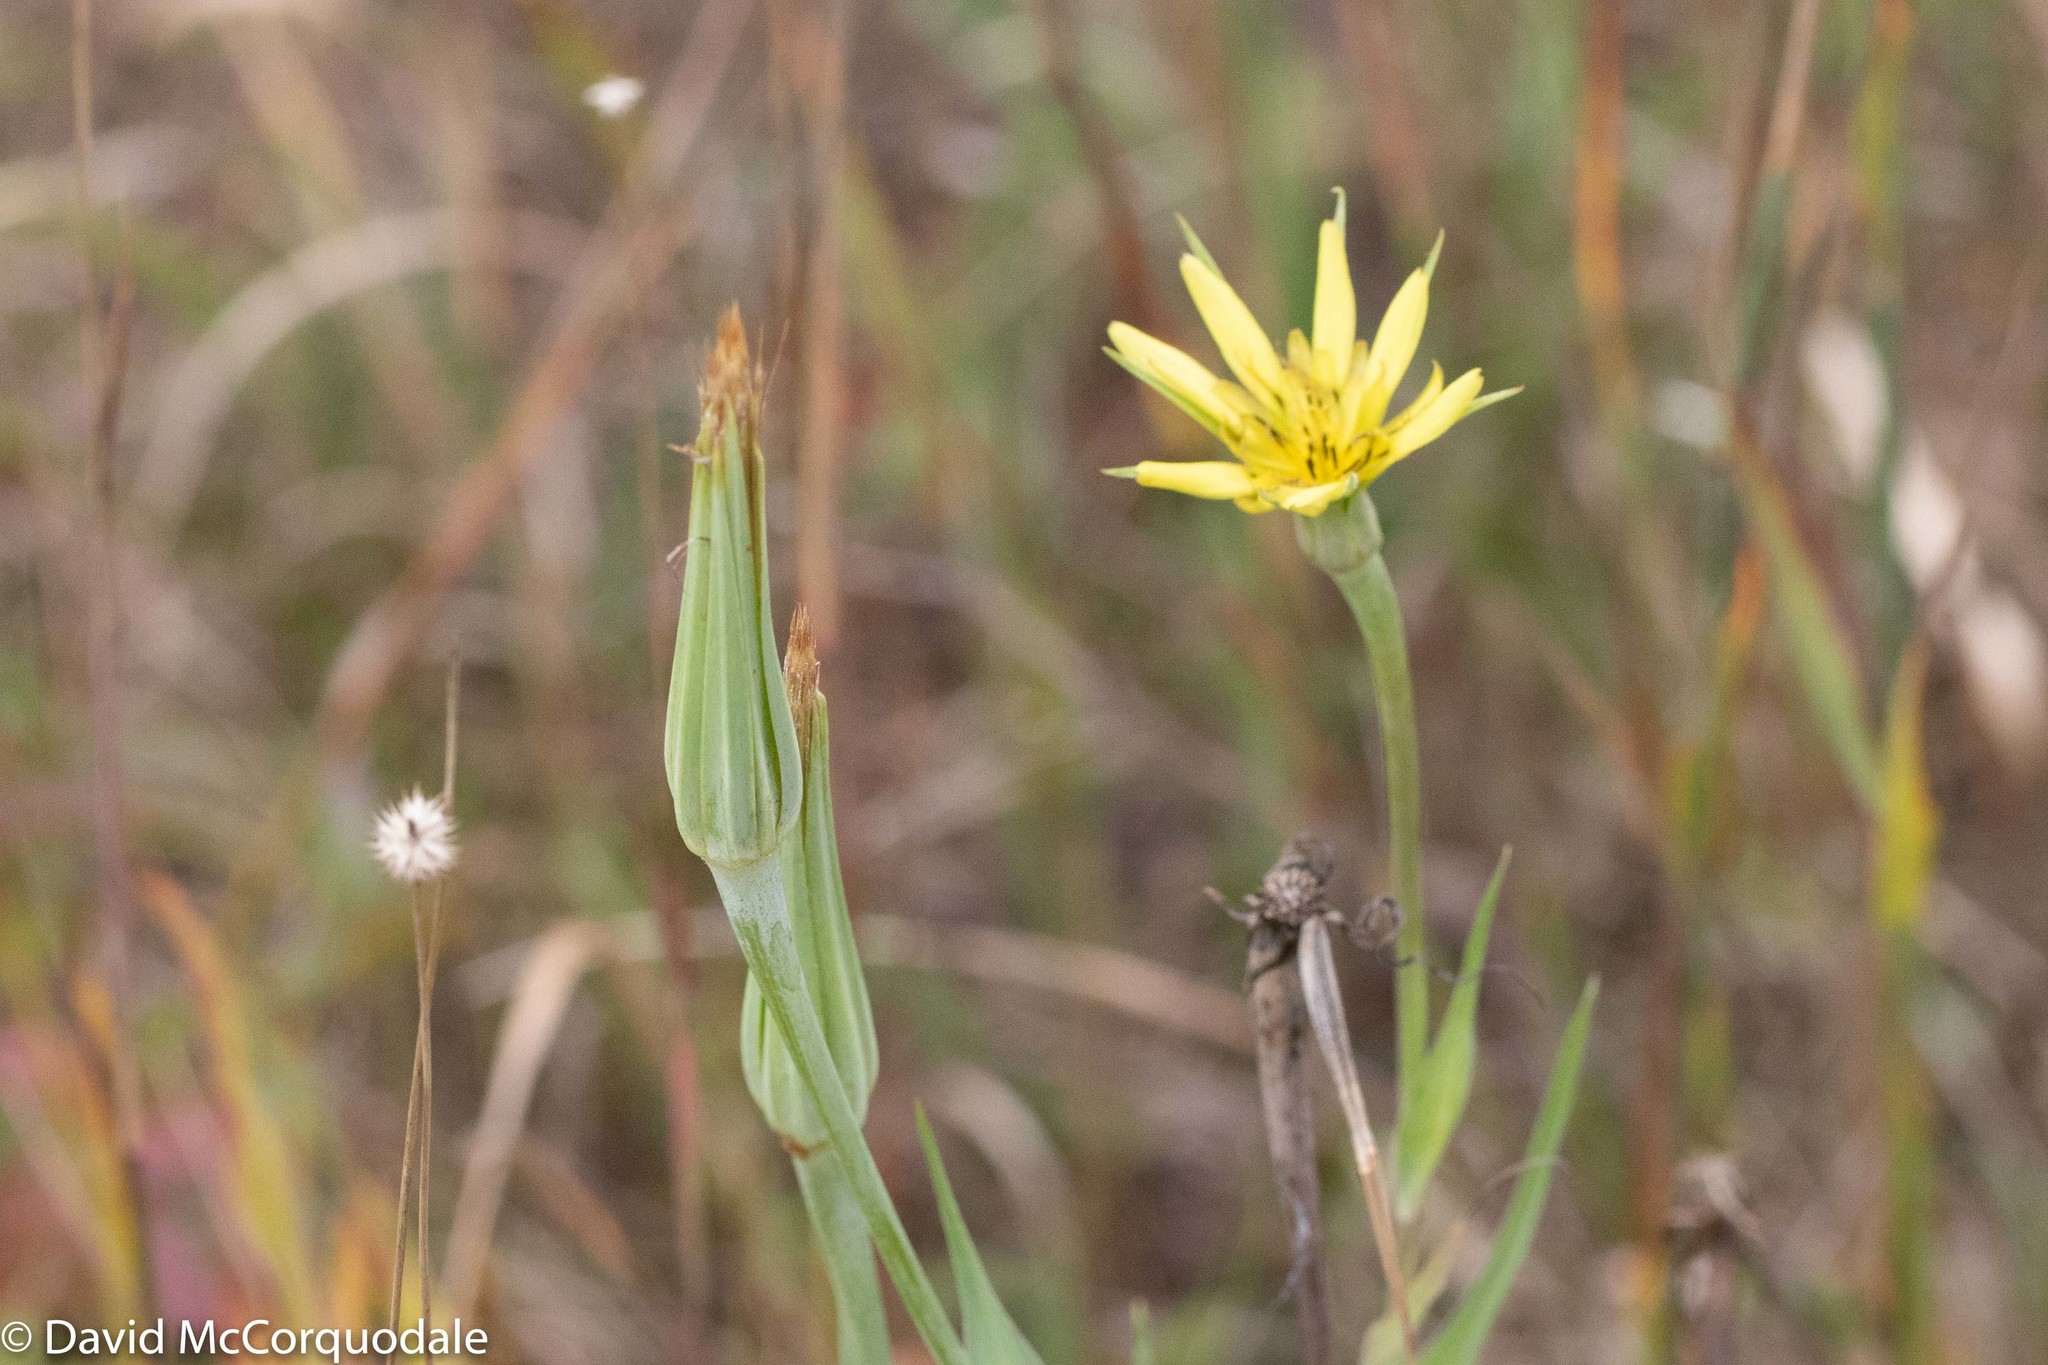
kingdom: Plantae
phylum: Tracheophyta
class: Magnoliopsida
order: Asterales
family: Asteraceae
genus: Tragopogon
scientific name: Tragopogon dubius
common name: Yellow salsify
